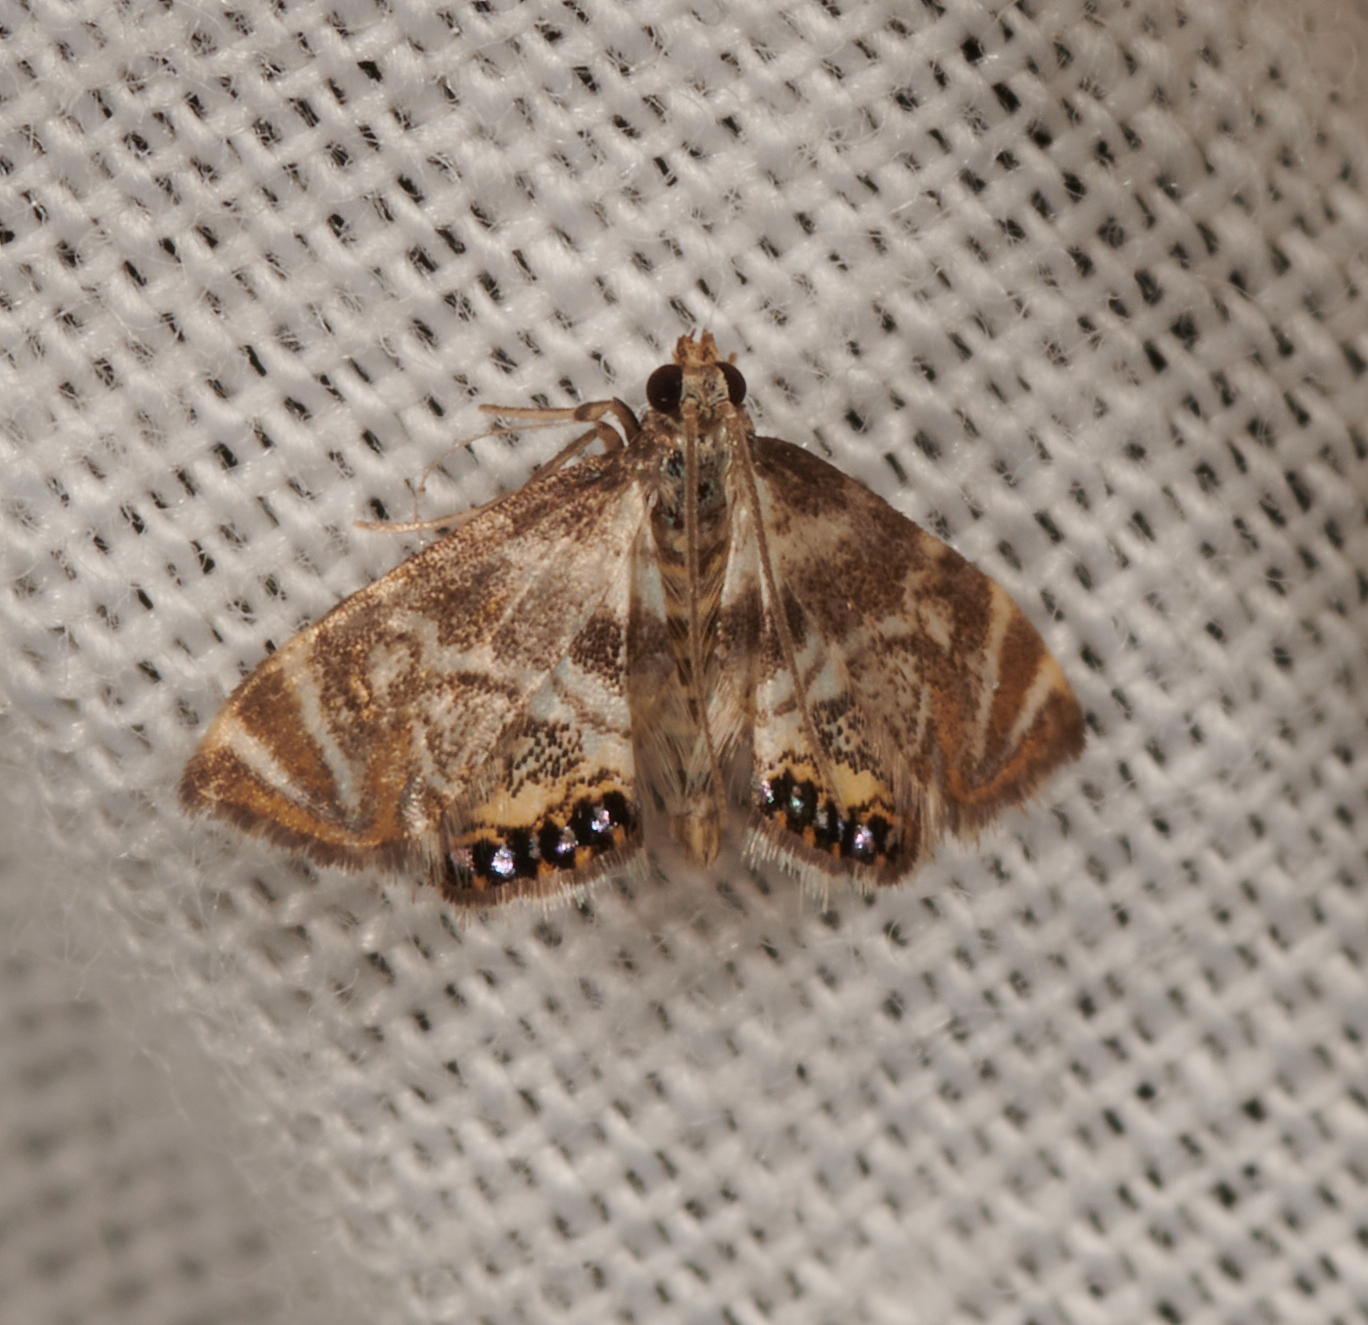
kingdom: Animalia
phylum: Arthropoda
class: Insecta
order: Lepidoptera
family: Crambidae
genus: Petrophila
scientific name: Petrophila canadensis
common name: Canadian petrophila
